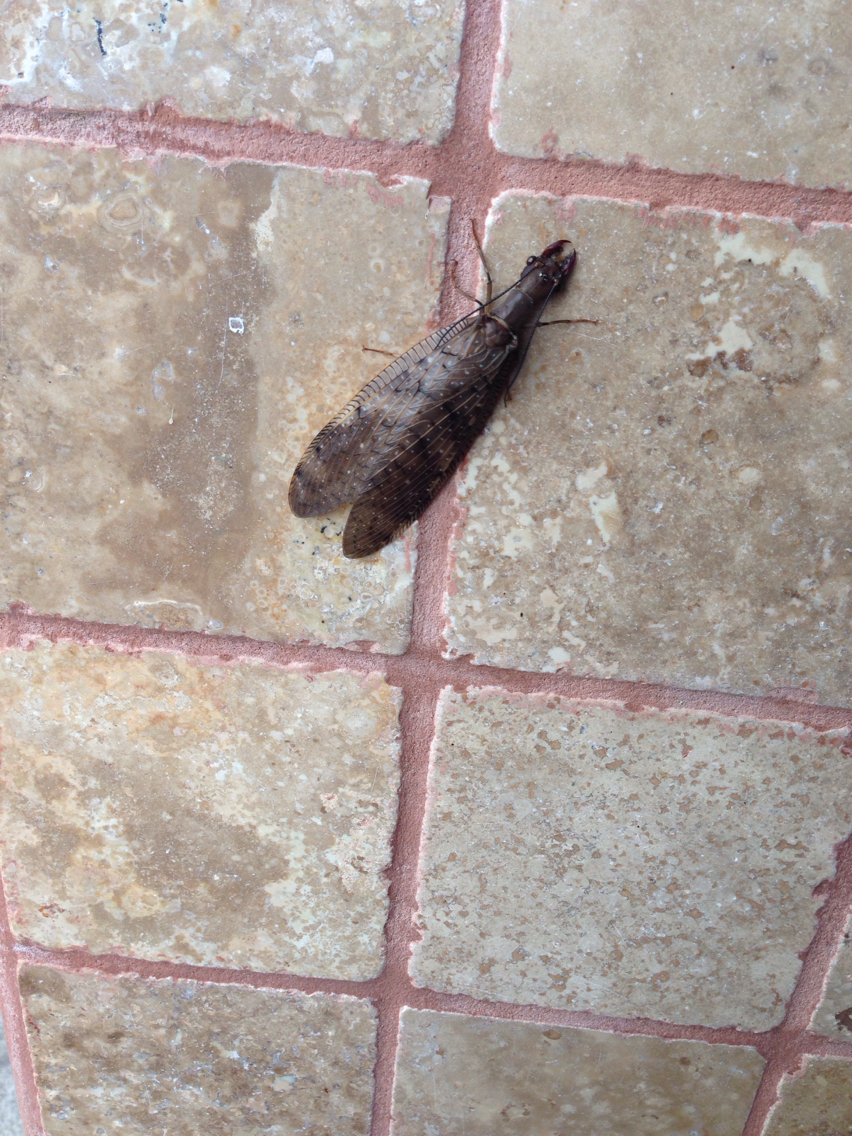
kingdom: Animalia
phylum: Arthropoda
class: Insecta
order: Megaloptera
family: Corydalidae
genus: Corydalus
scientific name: Corydalus peruvianus
